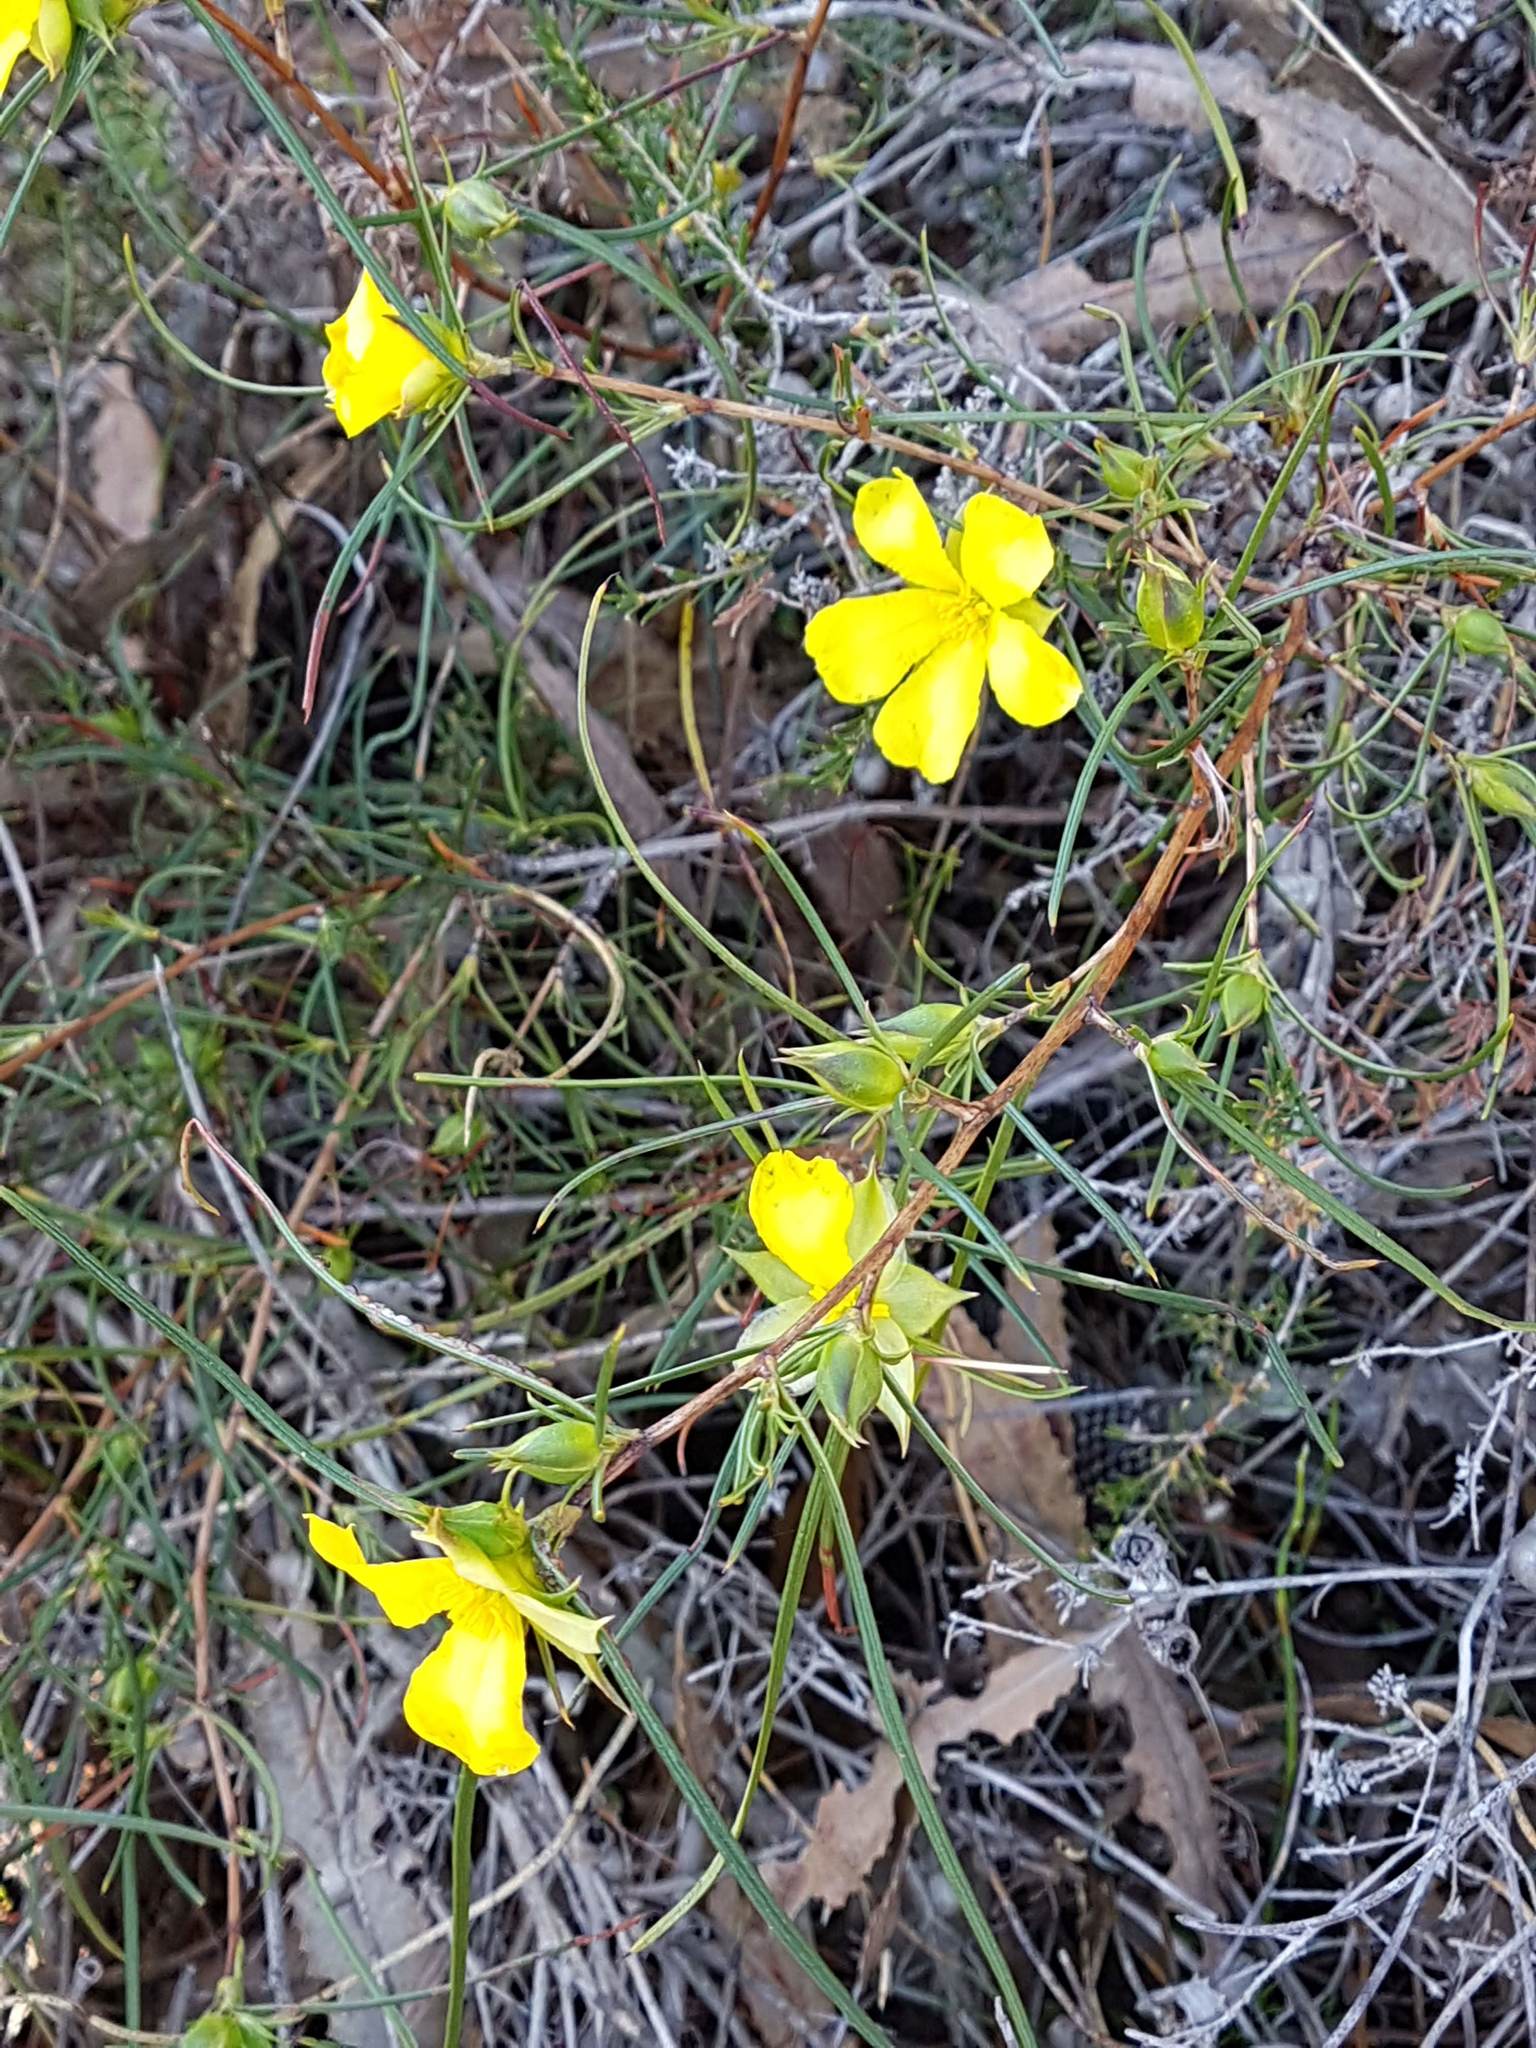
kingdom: Plantae
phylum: Tracheophyta
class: Magnoliopsida
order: Dilleniales
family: Dilleniaceae
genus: Hibbertia
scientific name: Hibbertia striata
